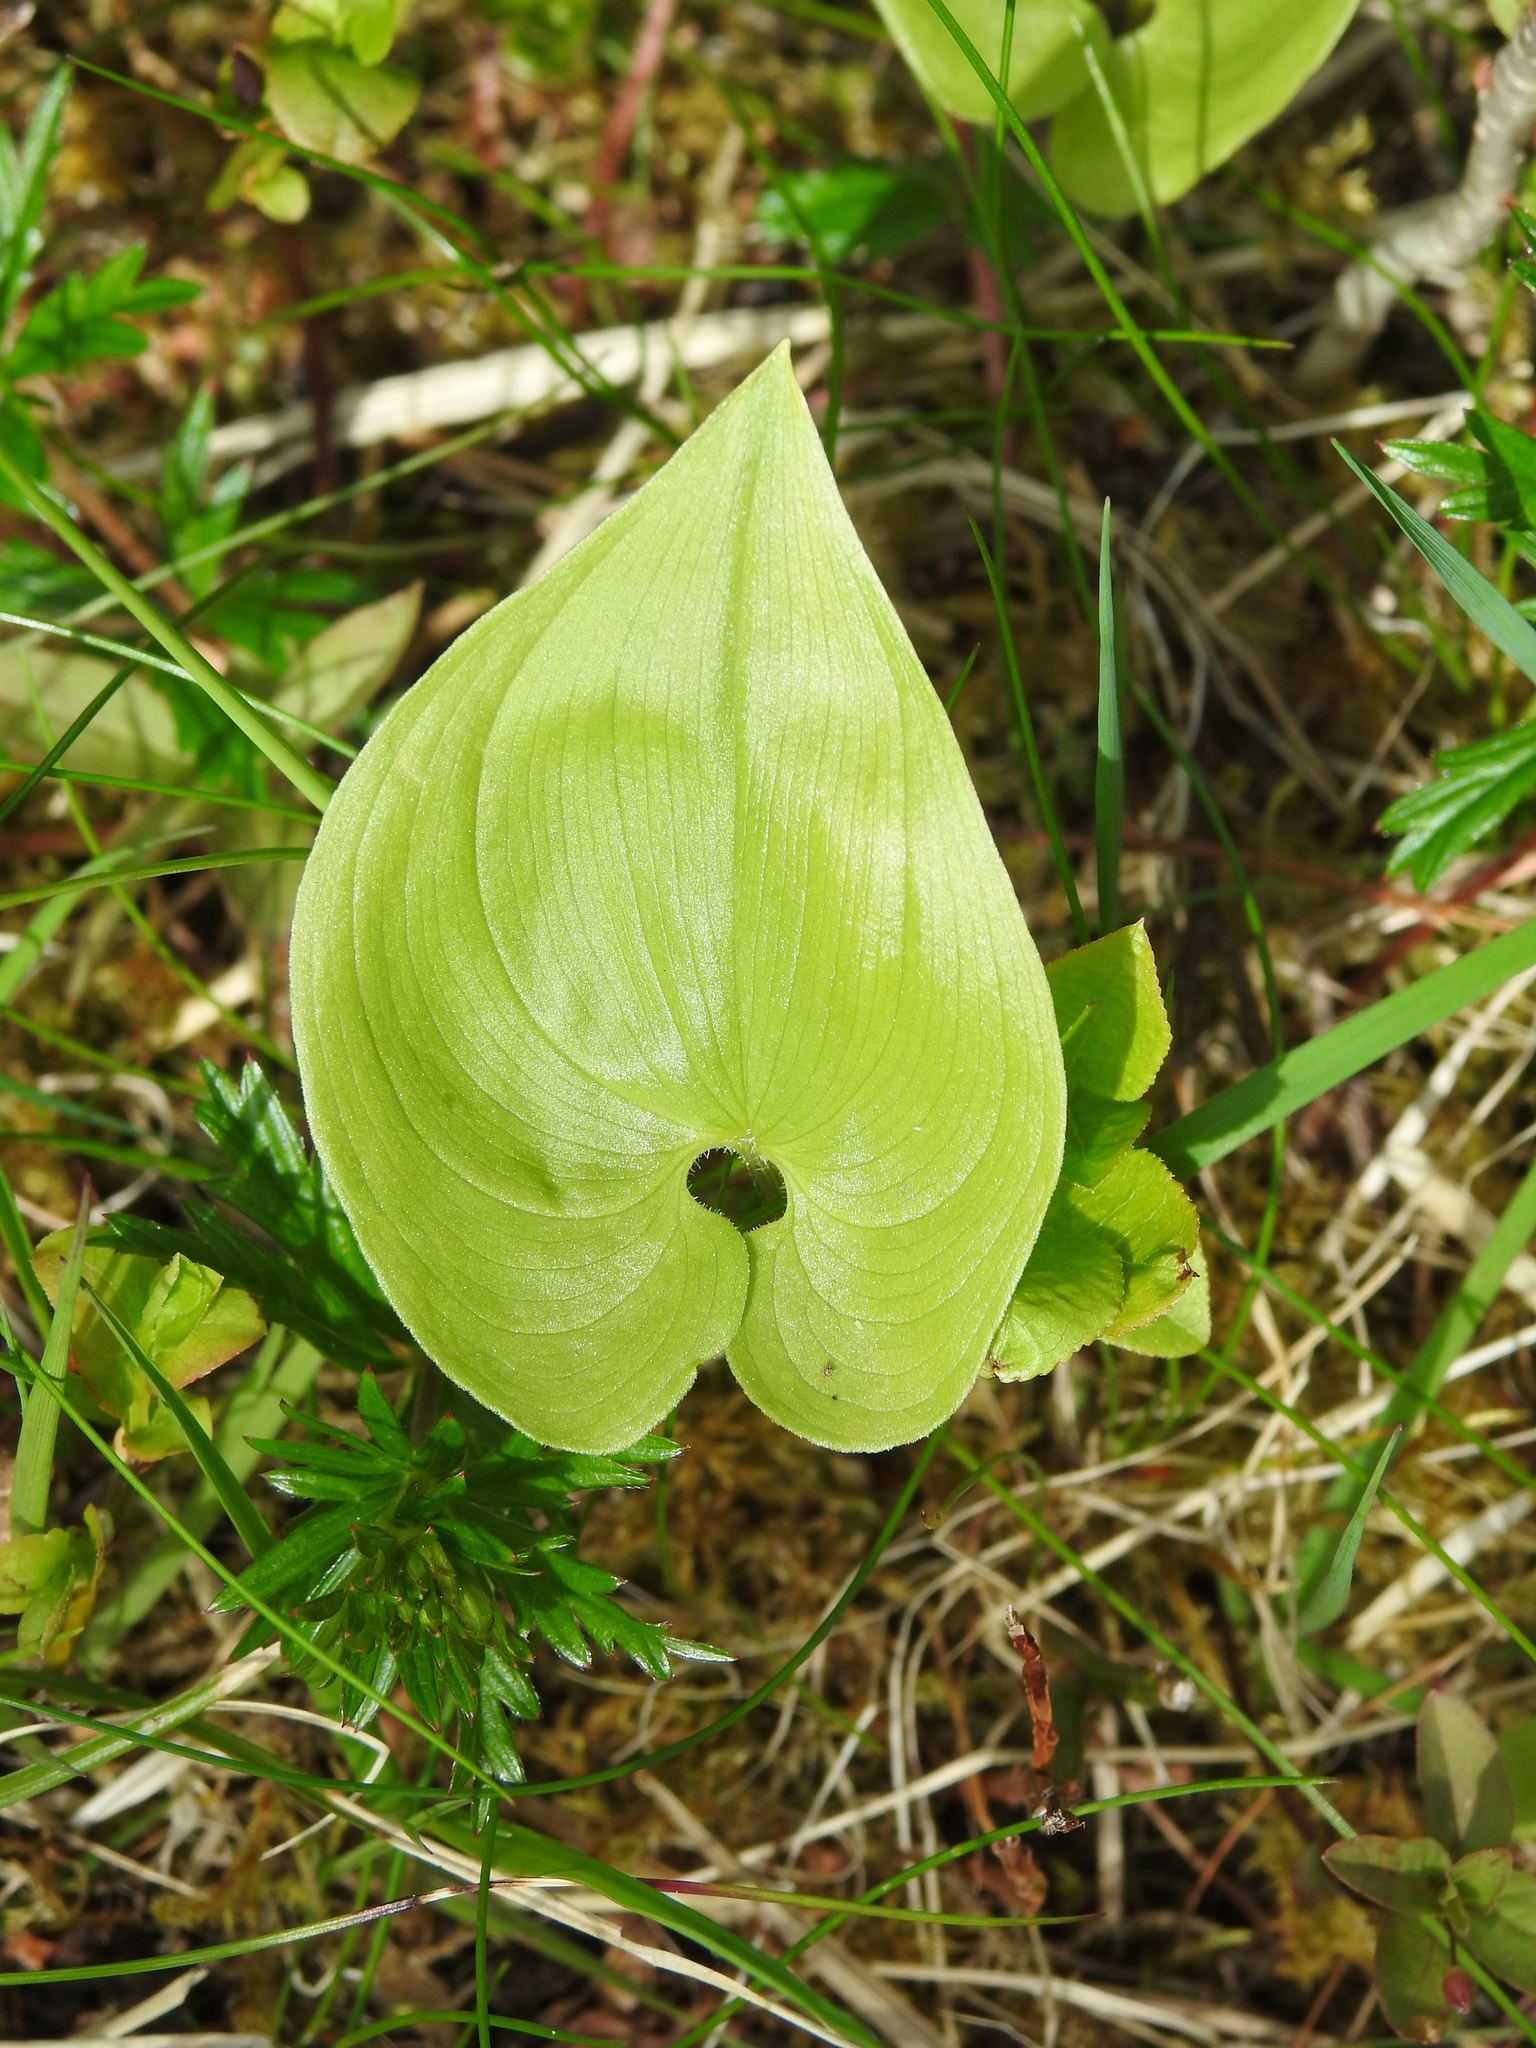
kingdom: Plantae
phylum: Tracheophyta
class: Liliopsida
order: Asparagales
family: Asparagaceae
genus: Maianthemum
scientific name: Maianthemum bifolium
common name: May lily
